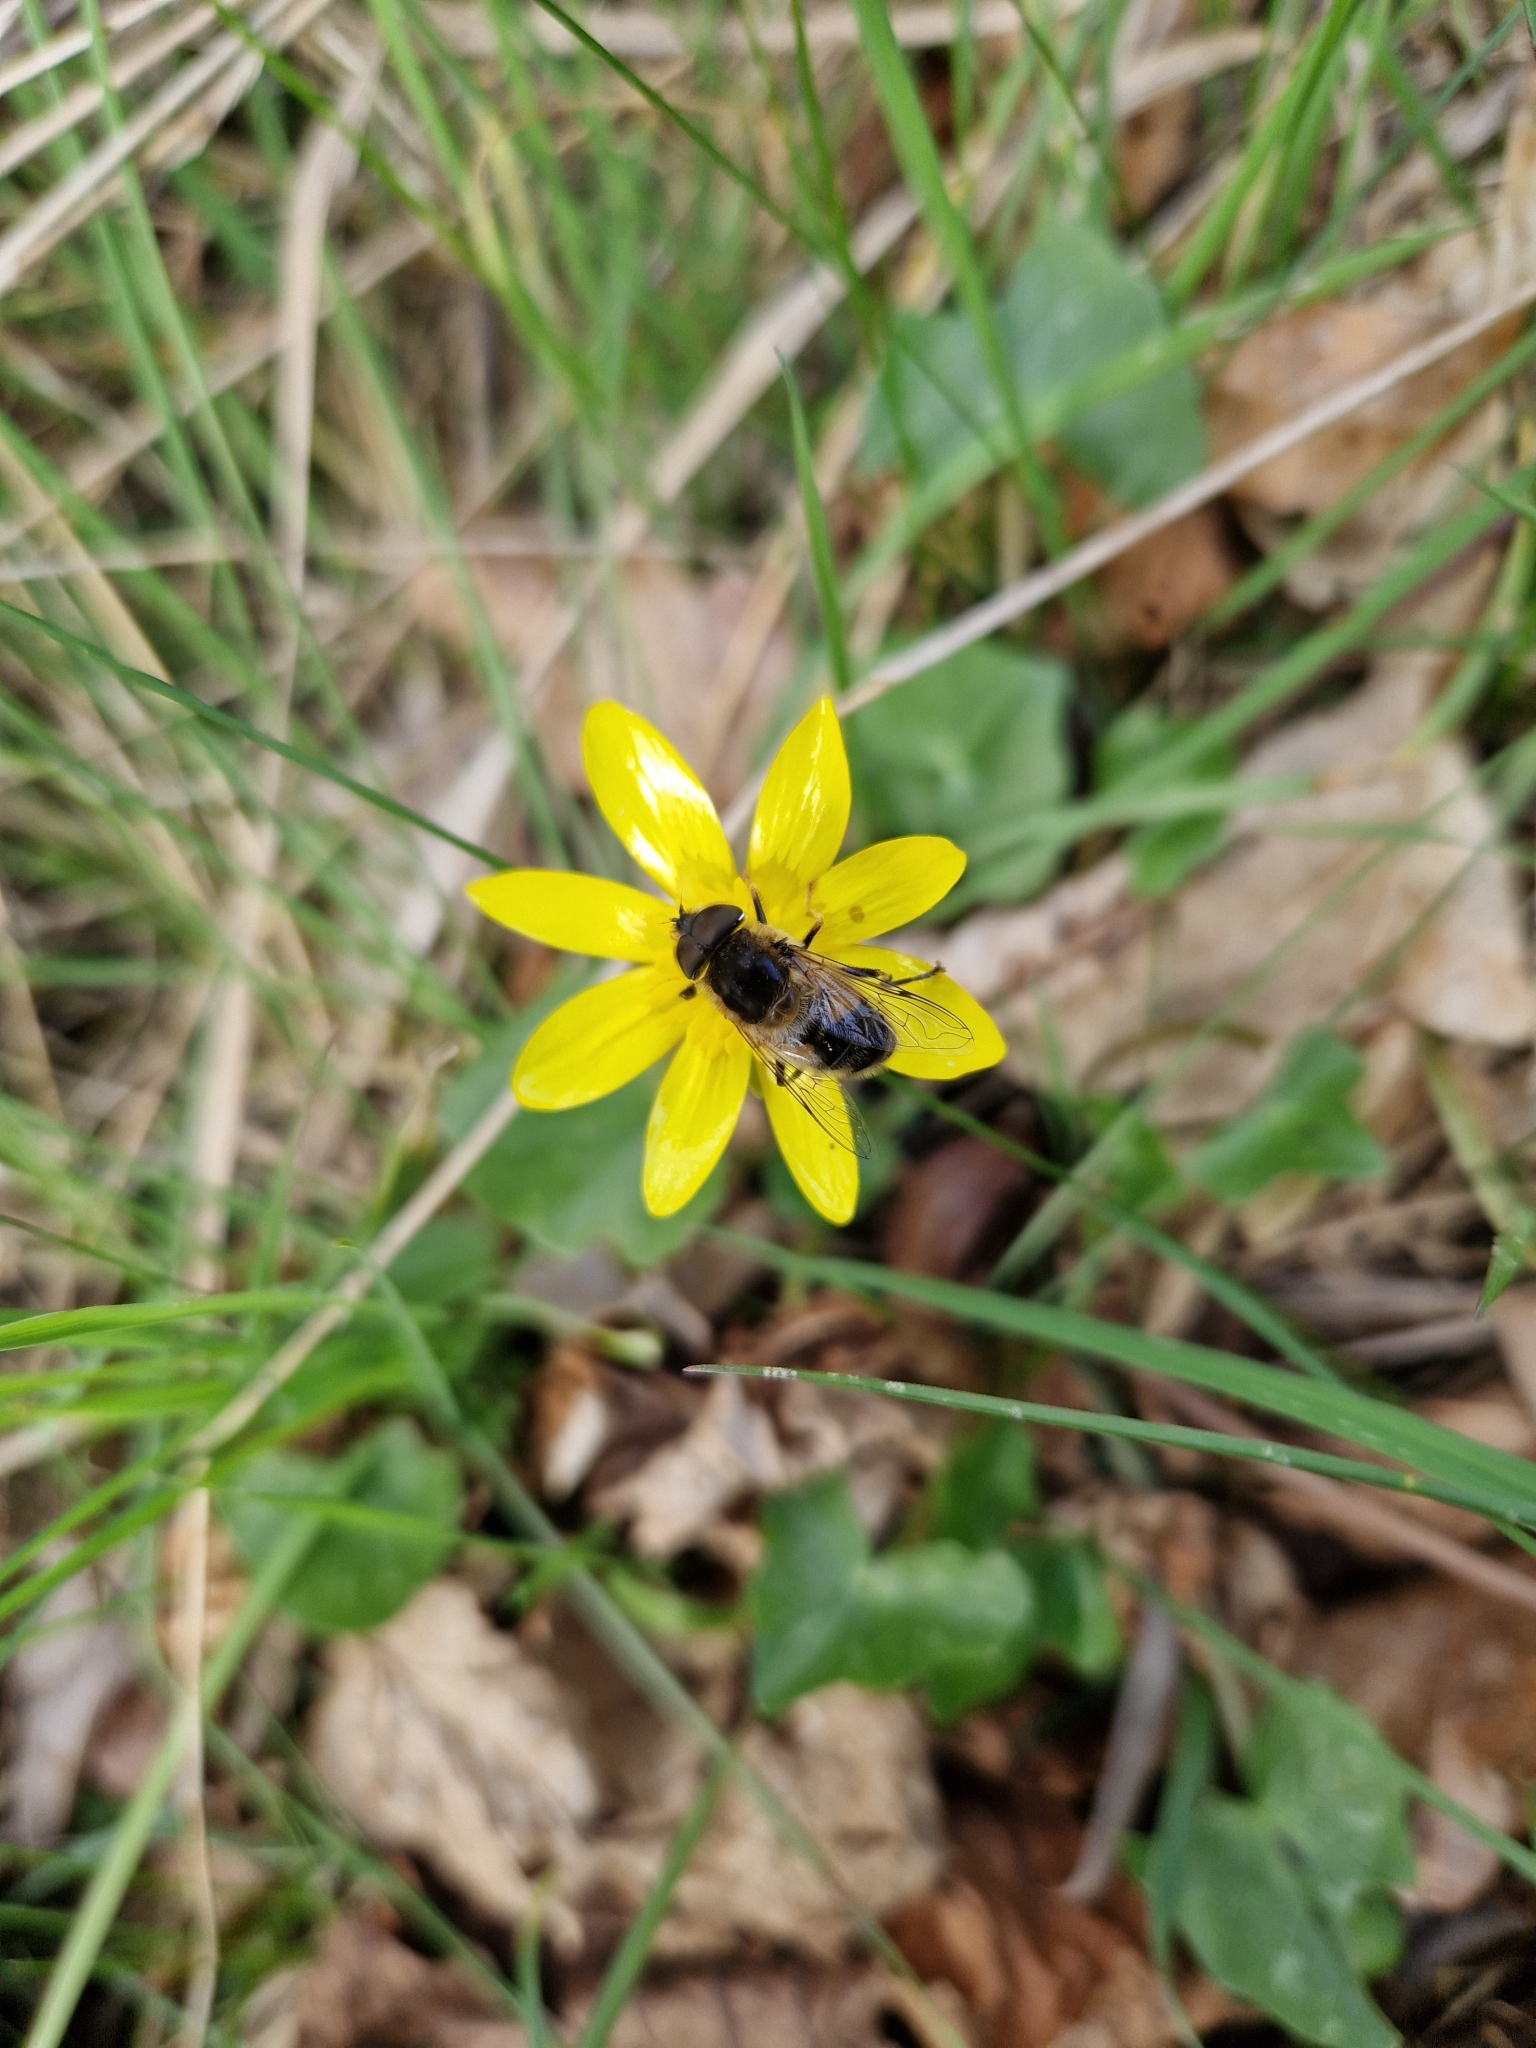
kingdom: Animalia
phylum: Arthropoda
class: Insecta
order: Diptera
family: Syrphidae
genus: Eristalis
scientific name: Eristalis pertinax
